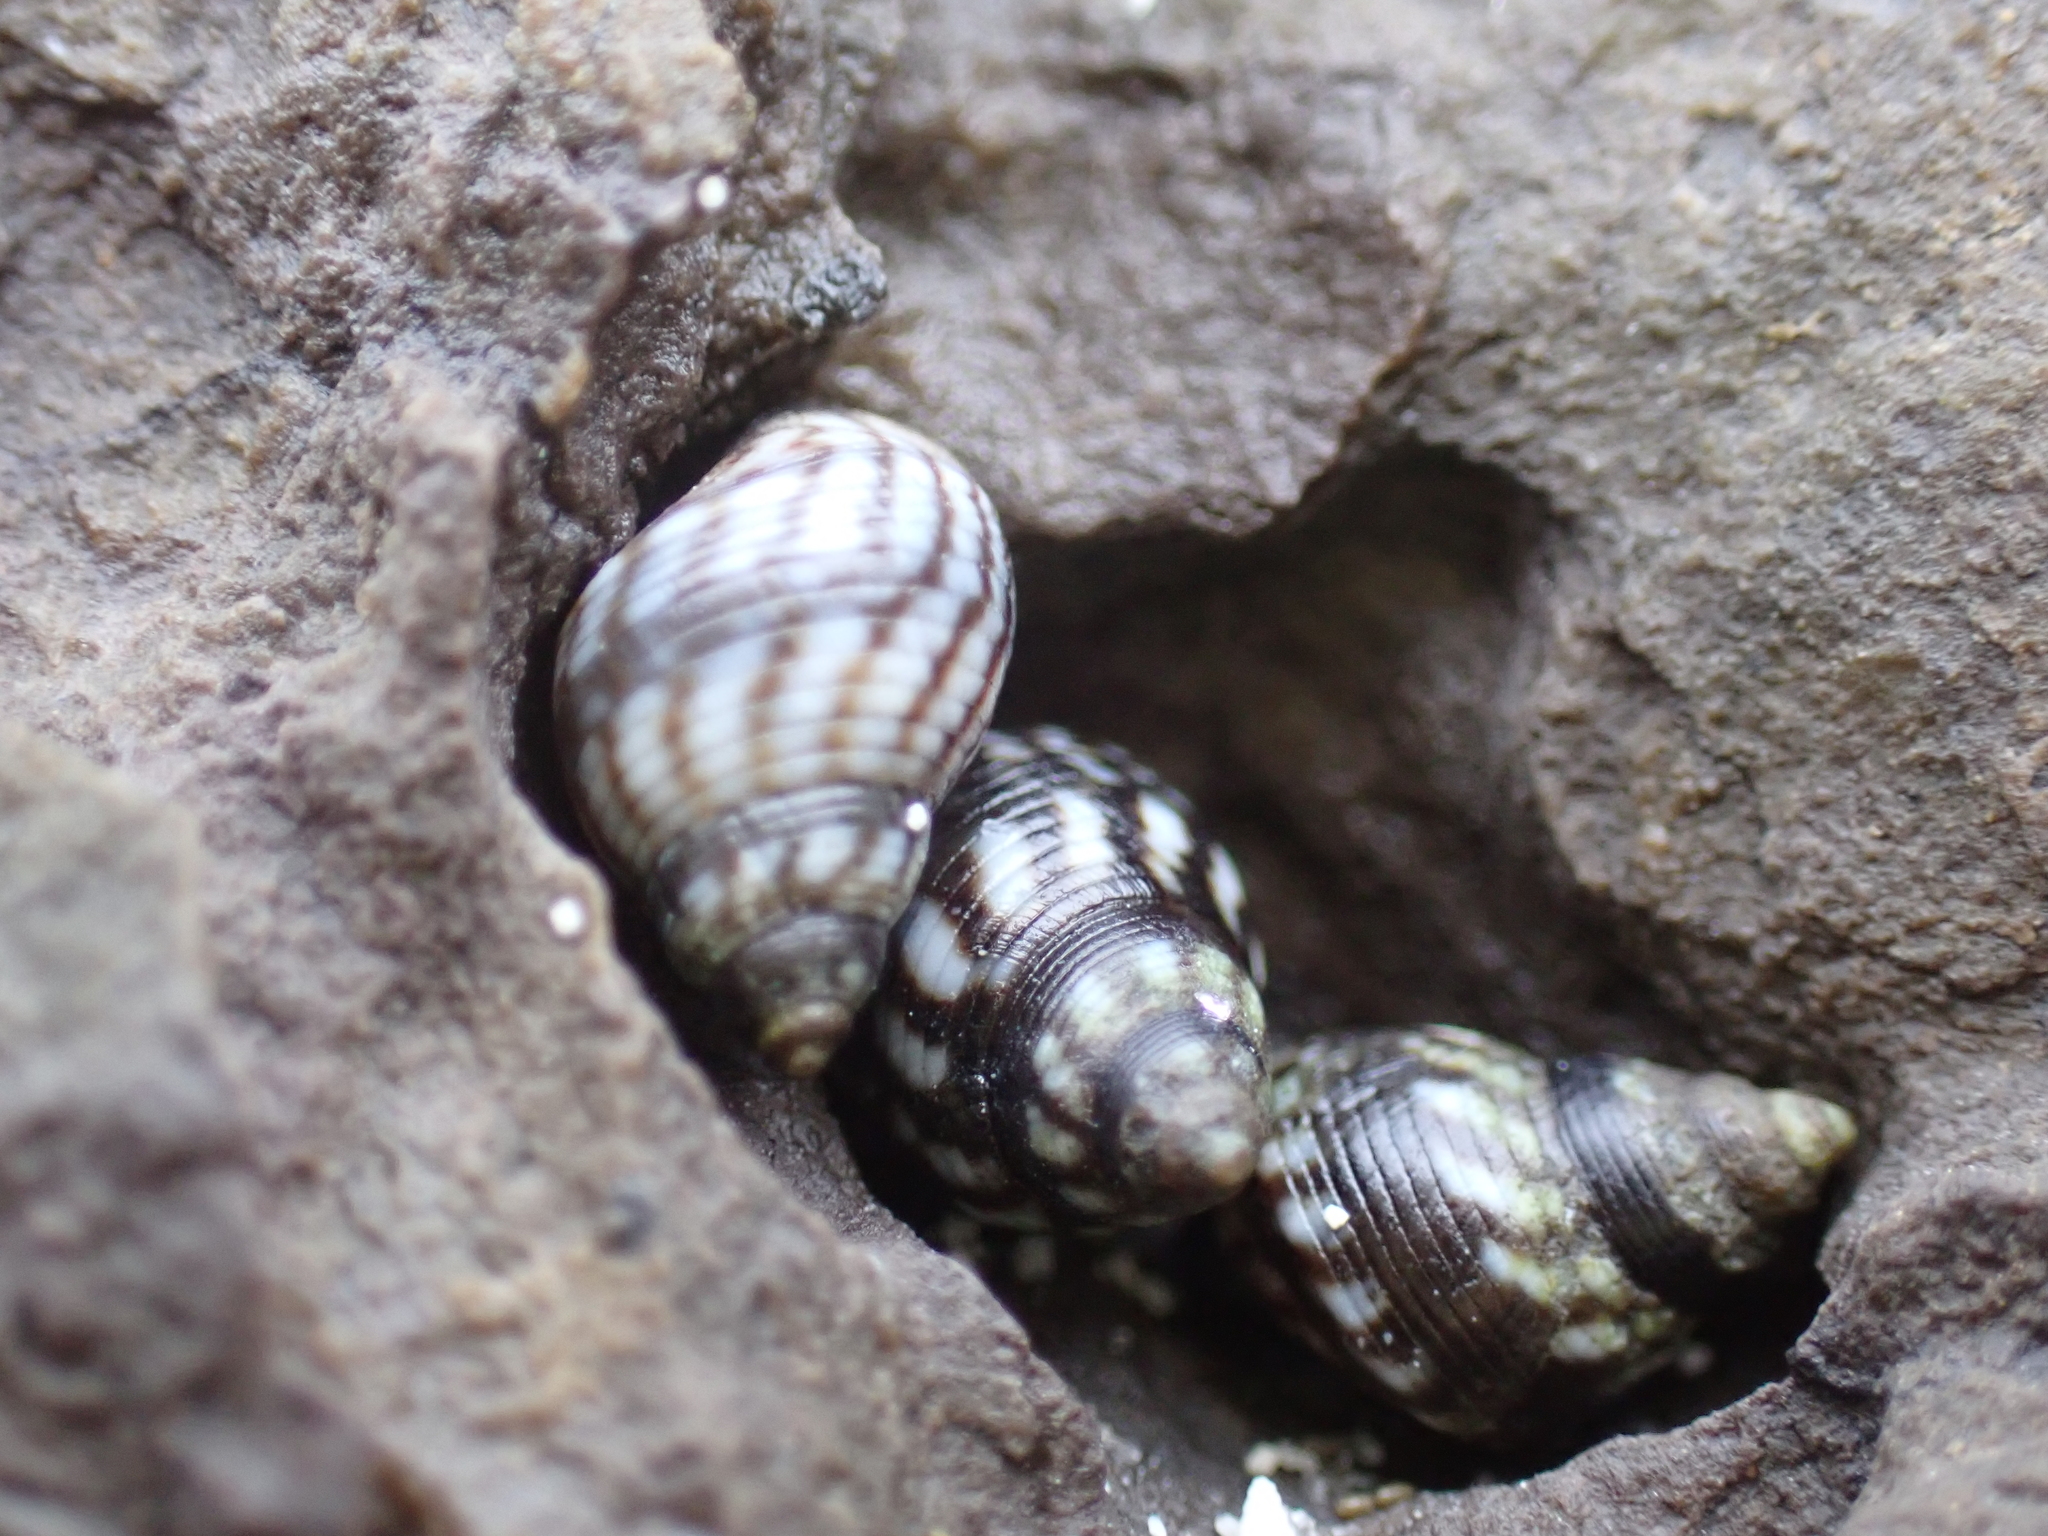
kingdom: Animalia
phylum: Mollusca
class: Gastropoda
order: Littorinimorpha
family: Littorinidae
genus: Echinolittorina
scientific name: Echinolittorina placida
